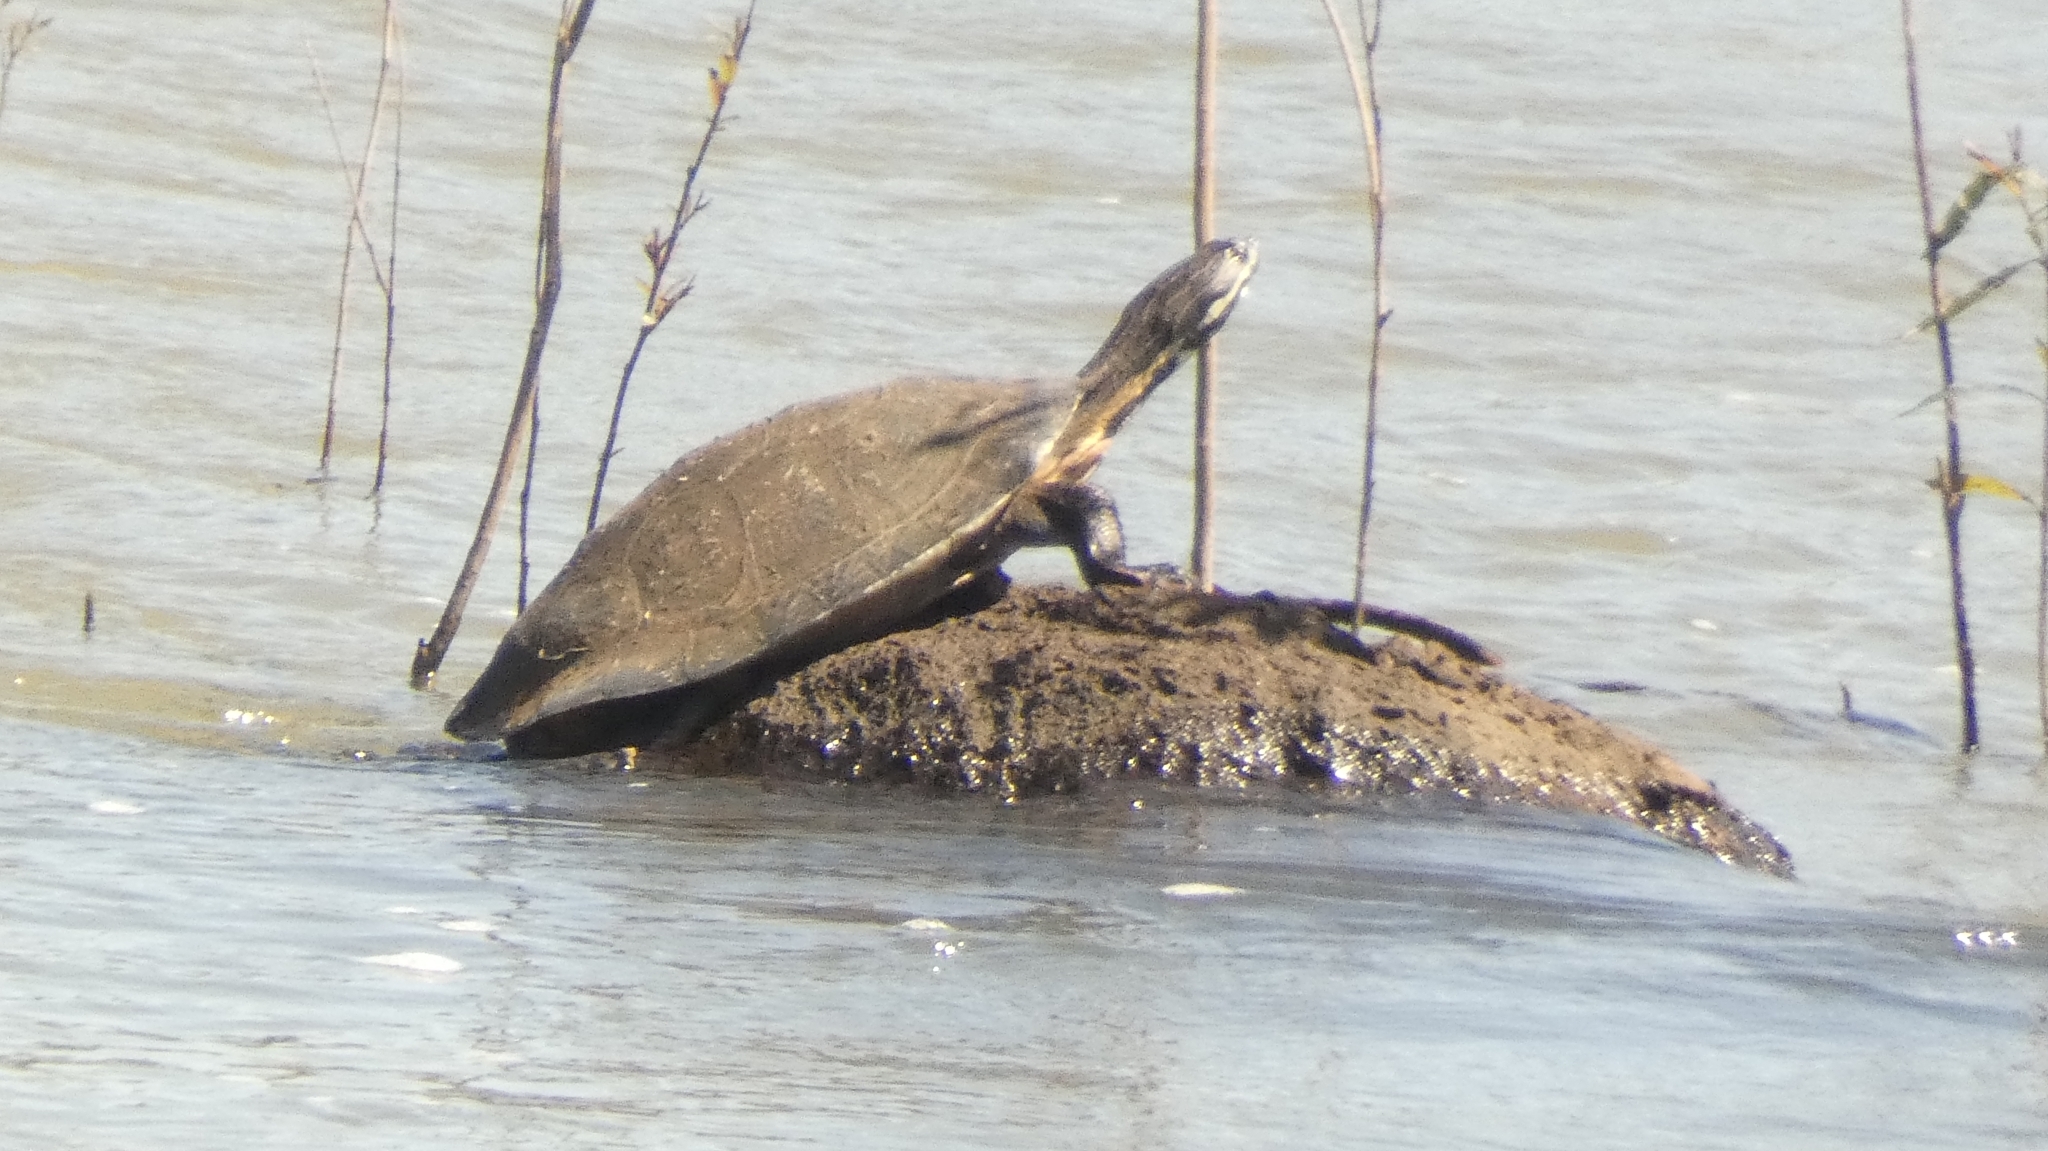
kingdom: Animalia
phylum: Chordata
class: Testudines
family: Chelidae
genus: Phrynops
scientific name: Phrynops williamsi
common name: Williams side-necked turtle
